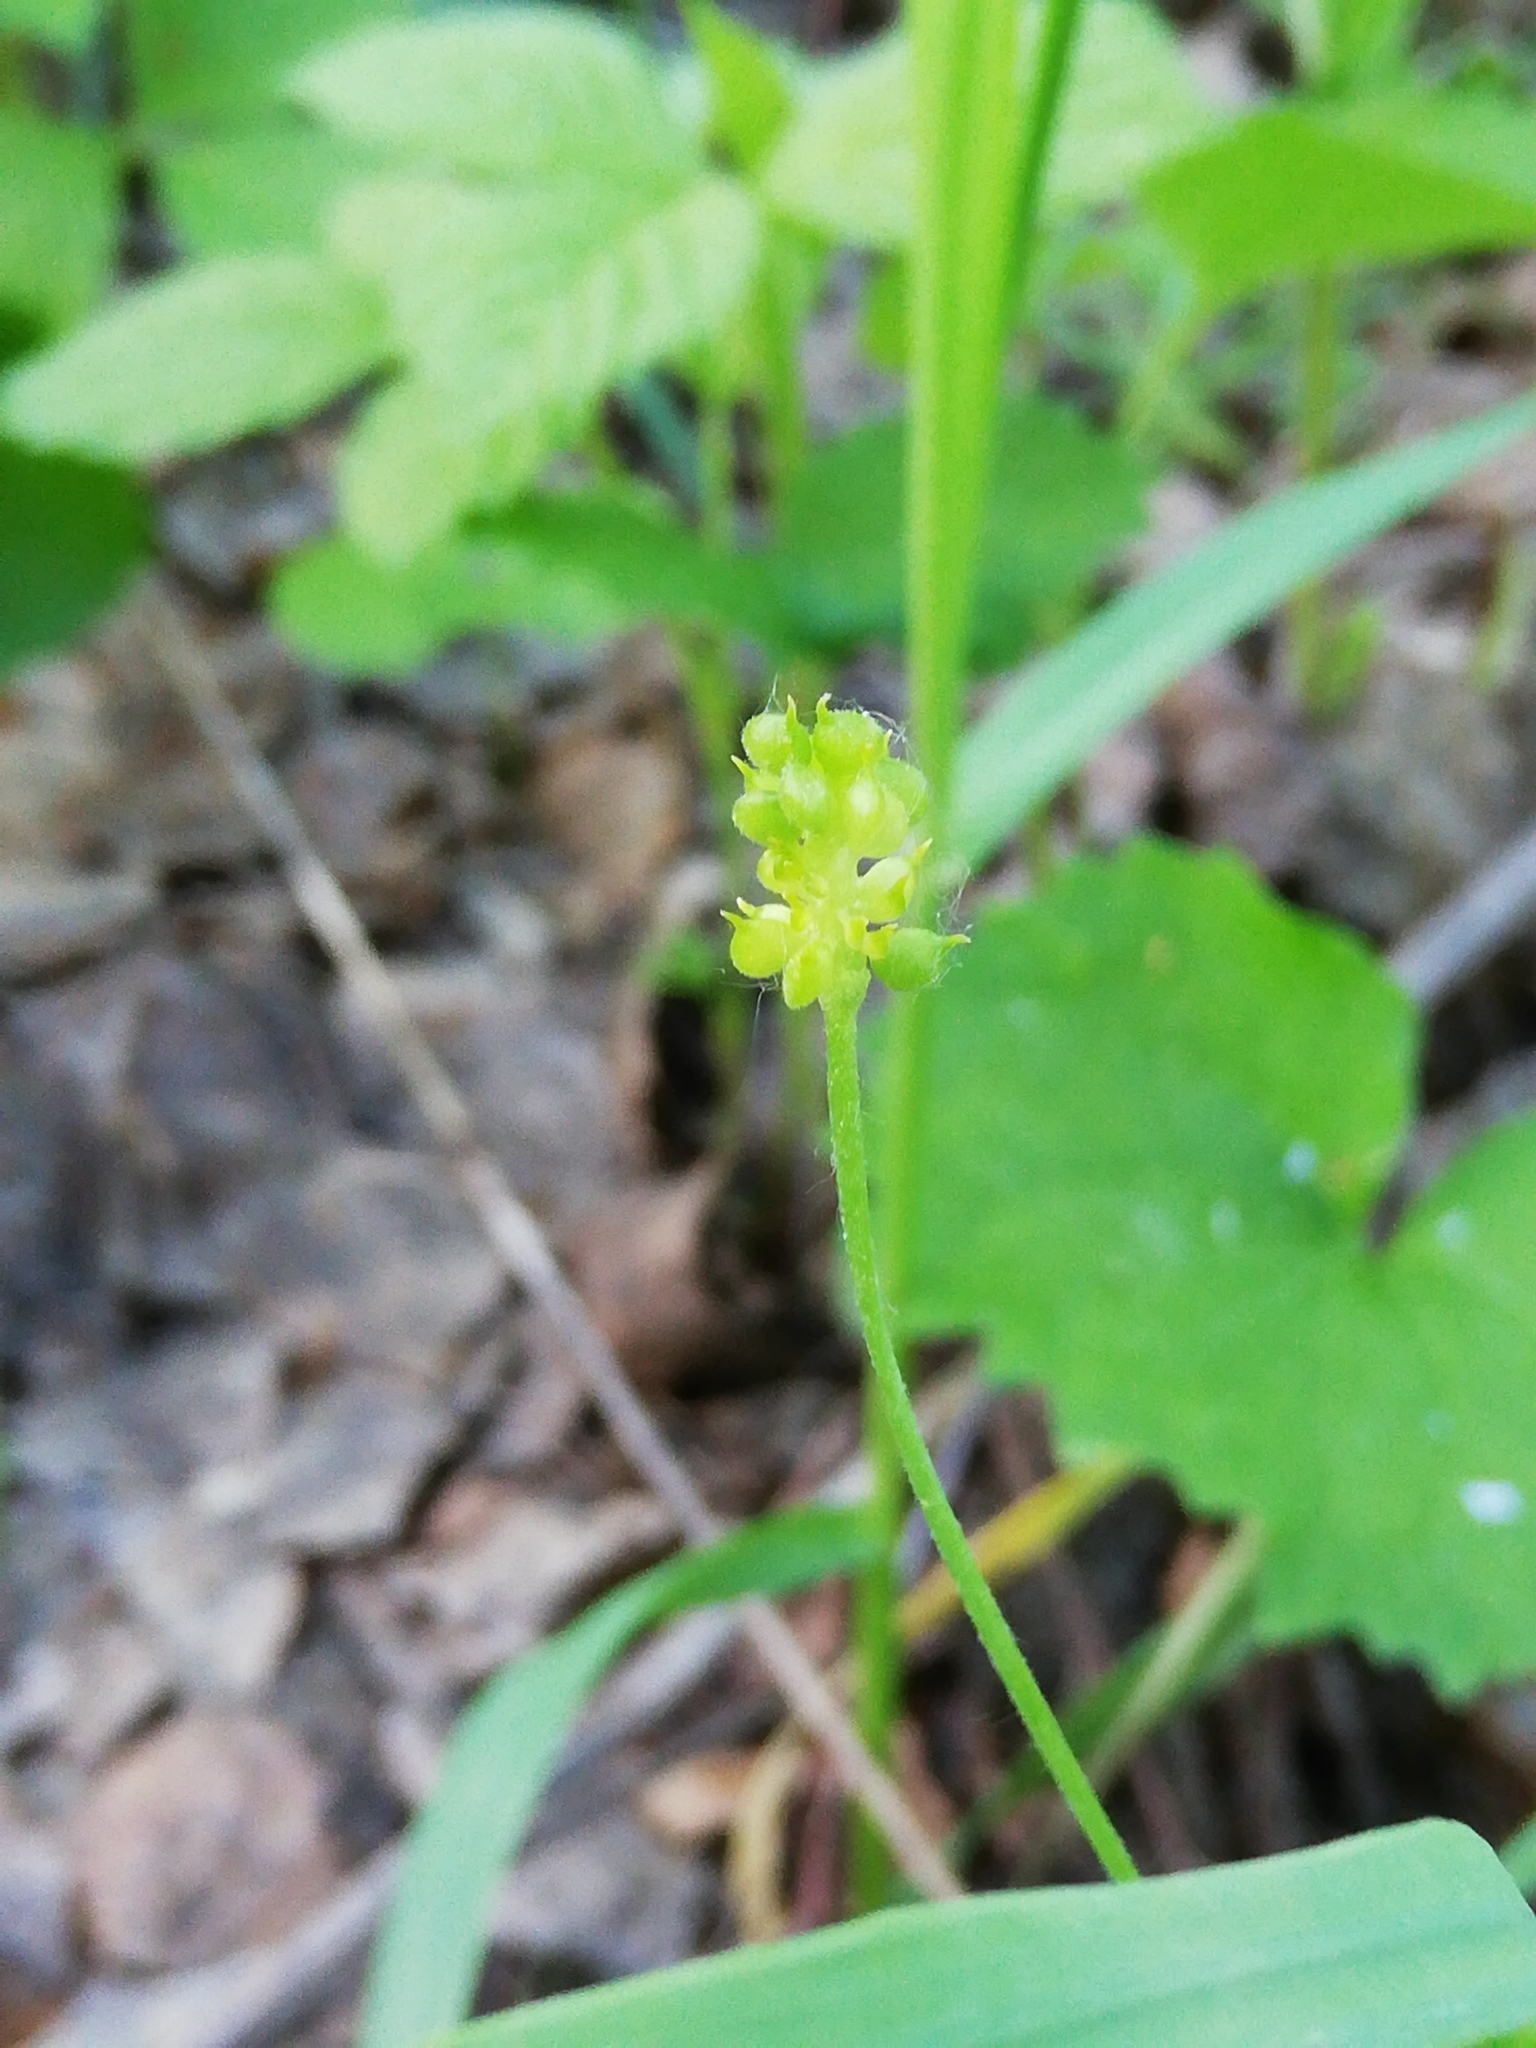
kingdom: Plantae
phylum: Tracheophyta
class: Magnoliopsida
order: Ranunculales
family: Ranunculaceae
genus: Ranunculus
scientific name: Ranunculus monophyllus
